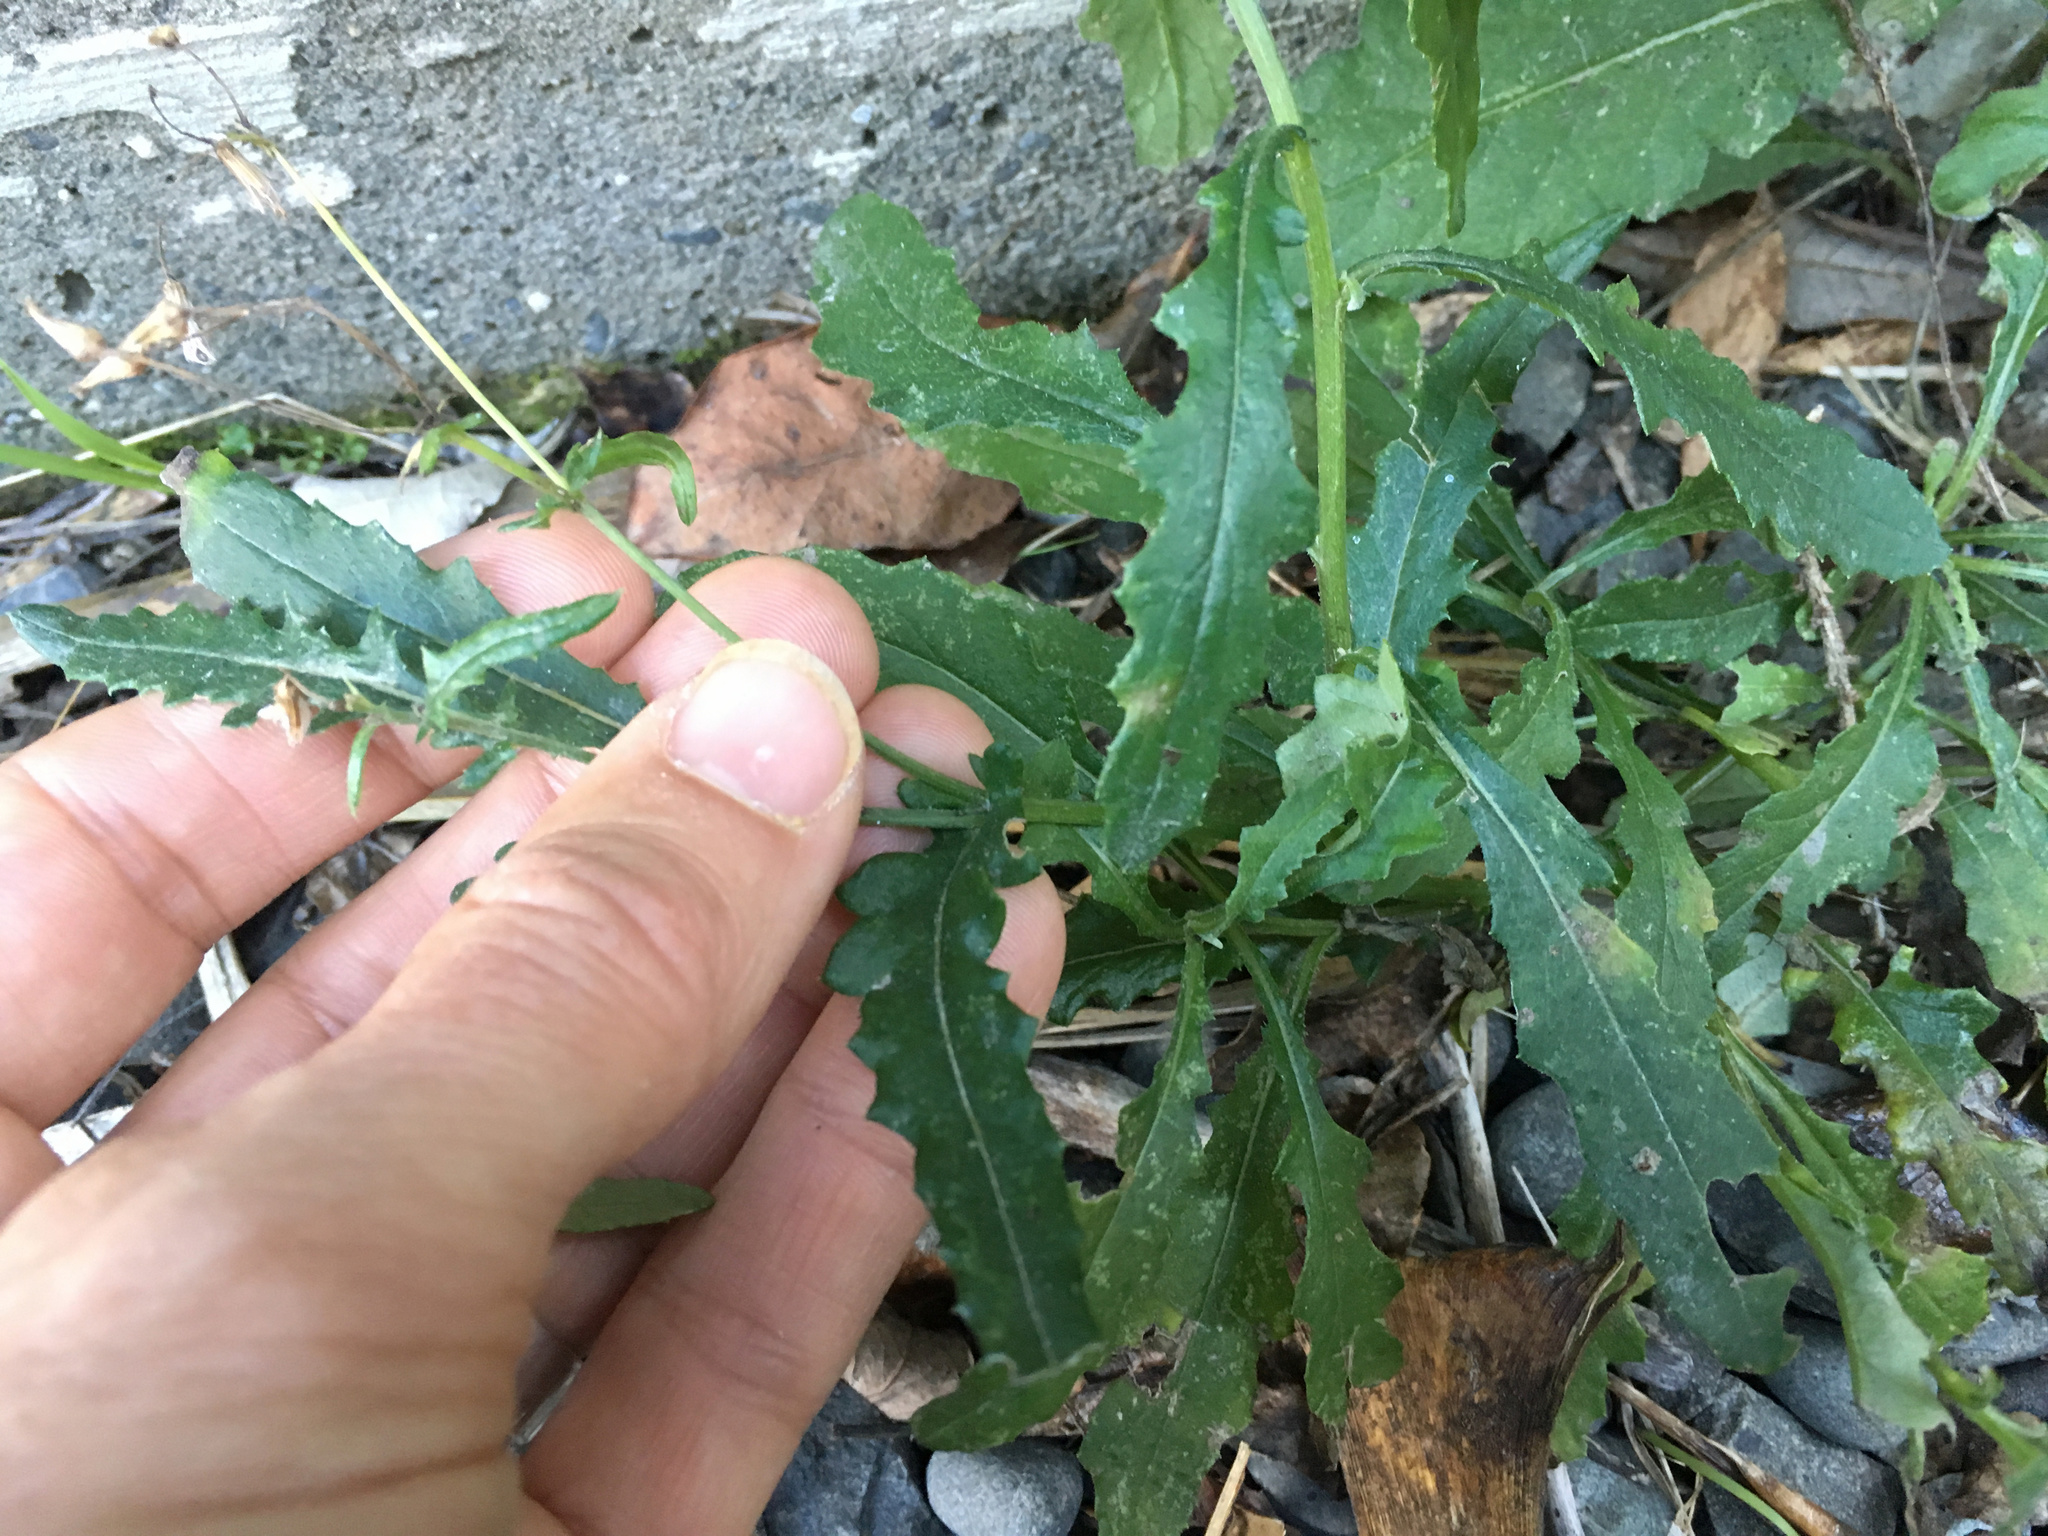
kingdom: Plantae
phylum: Tracheophyta
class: Magnoliopsida
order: Asterales
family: Asteraceae
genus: Senecio
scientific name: Senecio glomeratus
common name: Cutleaf burnweed
